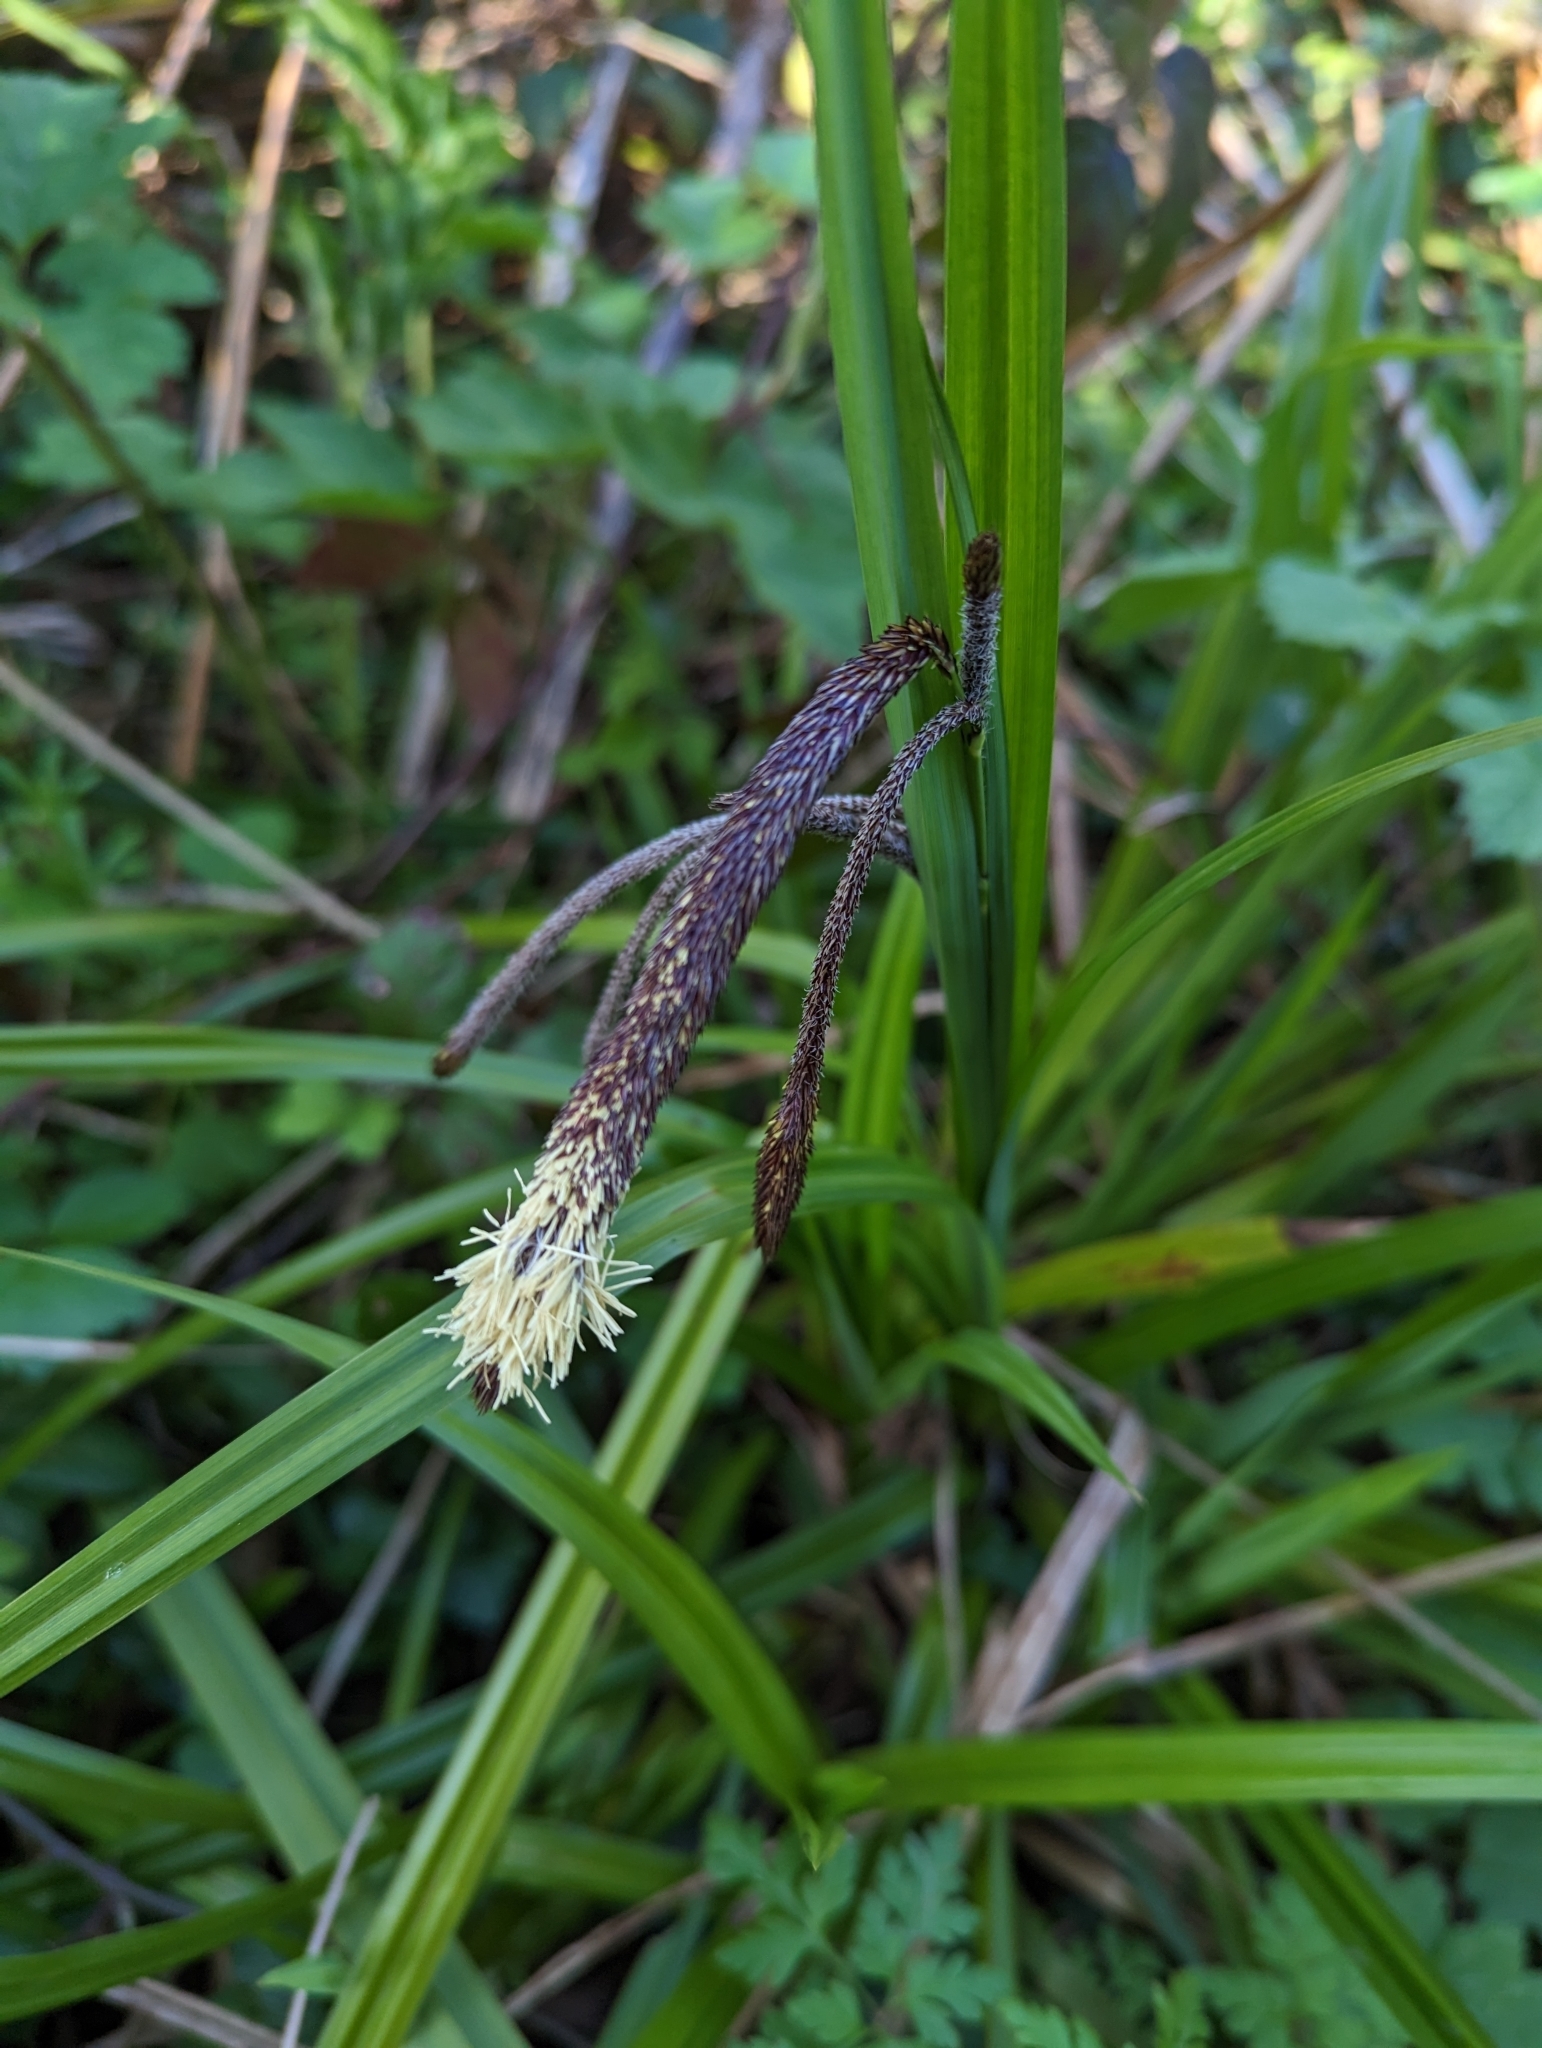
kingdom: Plantae
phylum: Tracheophyta
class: Liliopsida
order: Poales
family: Cyperaceae
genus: Carex
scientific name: Carex pendula
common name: Pendulous sedge
